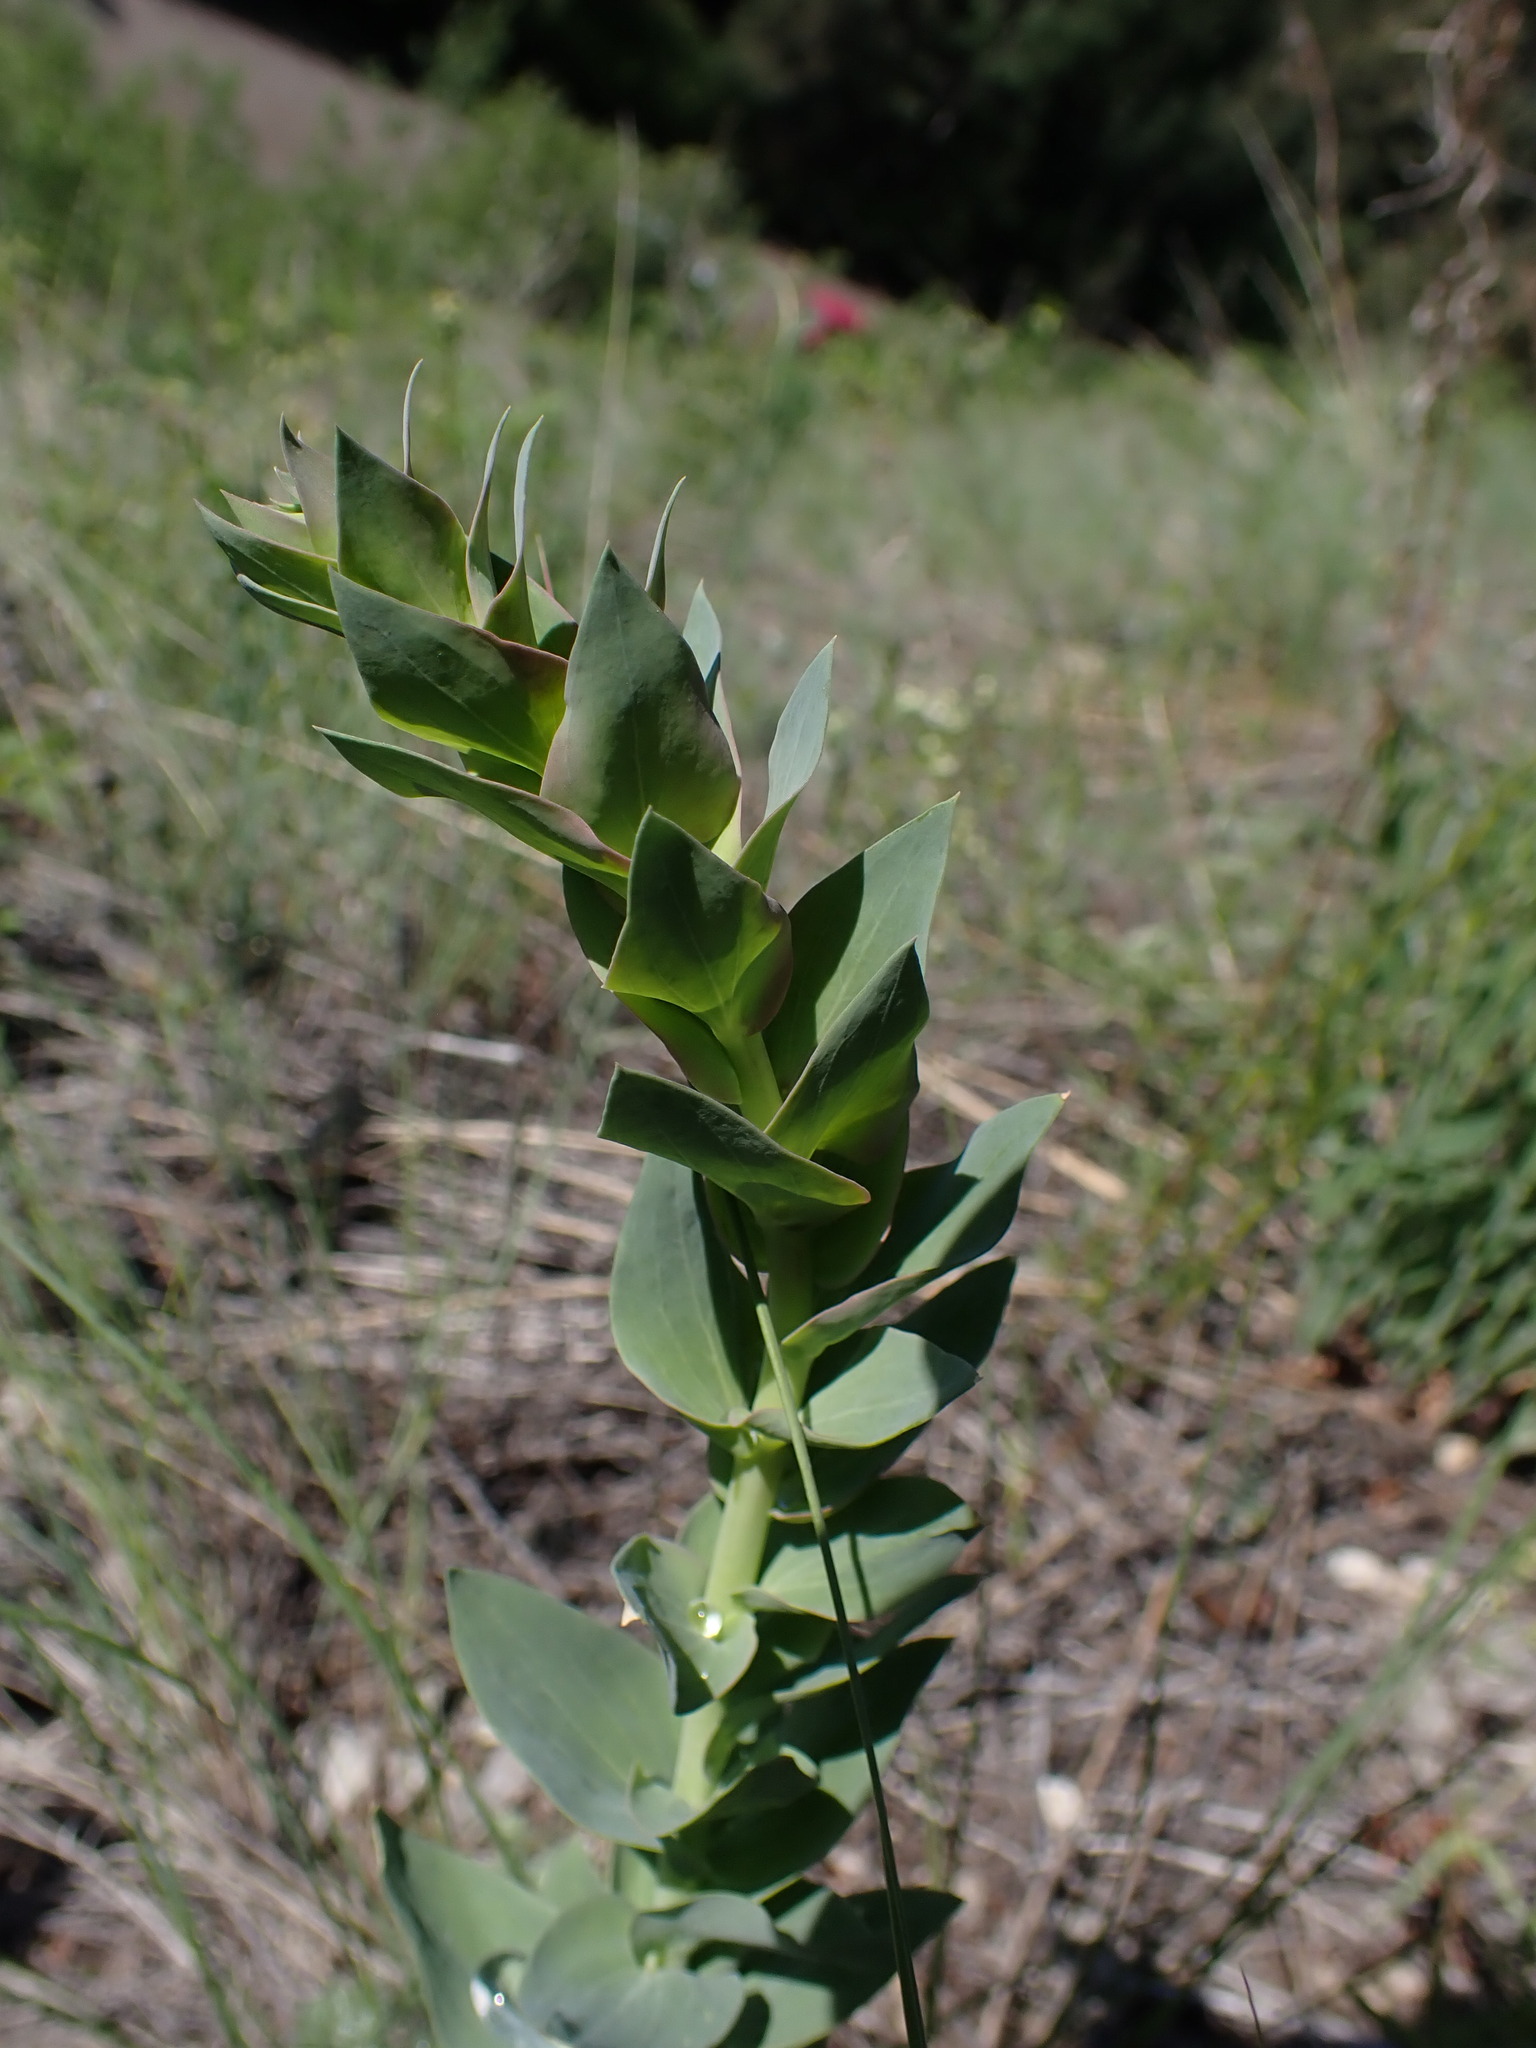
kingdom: Plantae
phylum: Tracheophyta
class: Magnoliopsida
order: Lamiales
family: Plantaginaceae
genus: Linaria
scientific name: Linaria dalmatica
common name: Dalmatian toadflax
